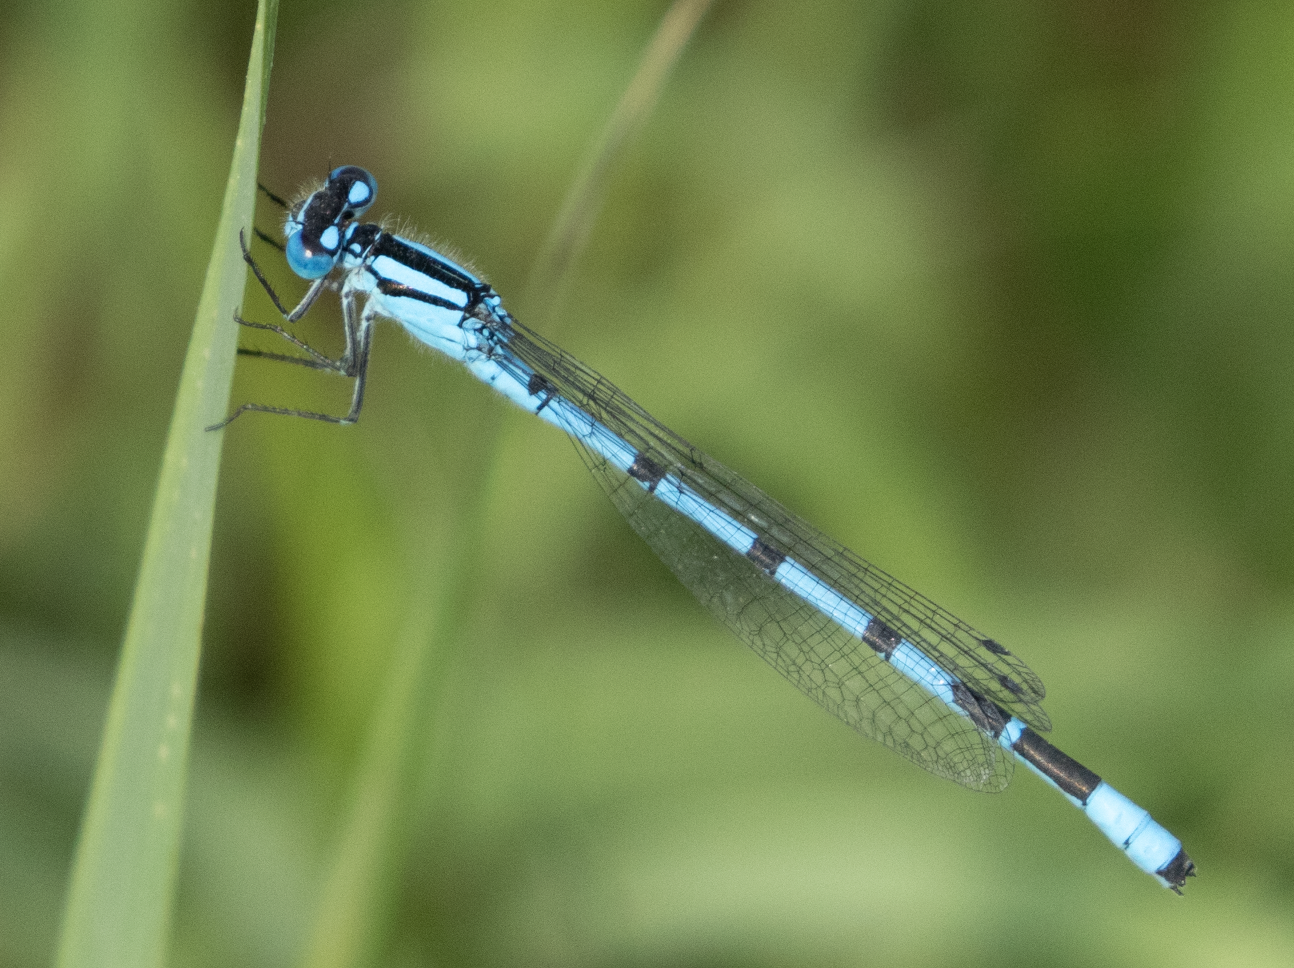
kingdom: Animalia
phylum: Arthropoda
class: Insecta
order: Odonata
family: Coenagrionidae
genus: Enallagma
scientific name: Enallagma cyathigerum
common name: Common blue damselfly
